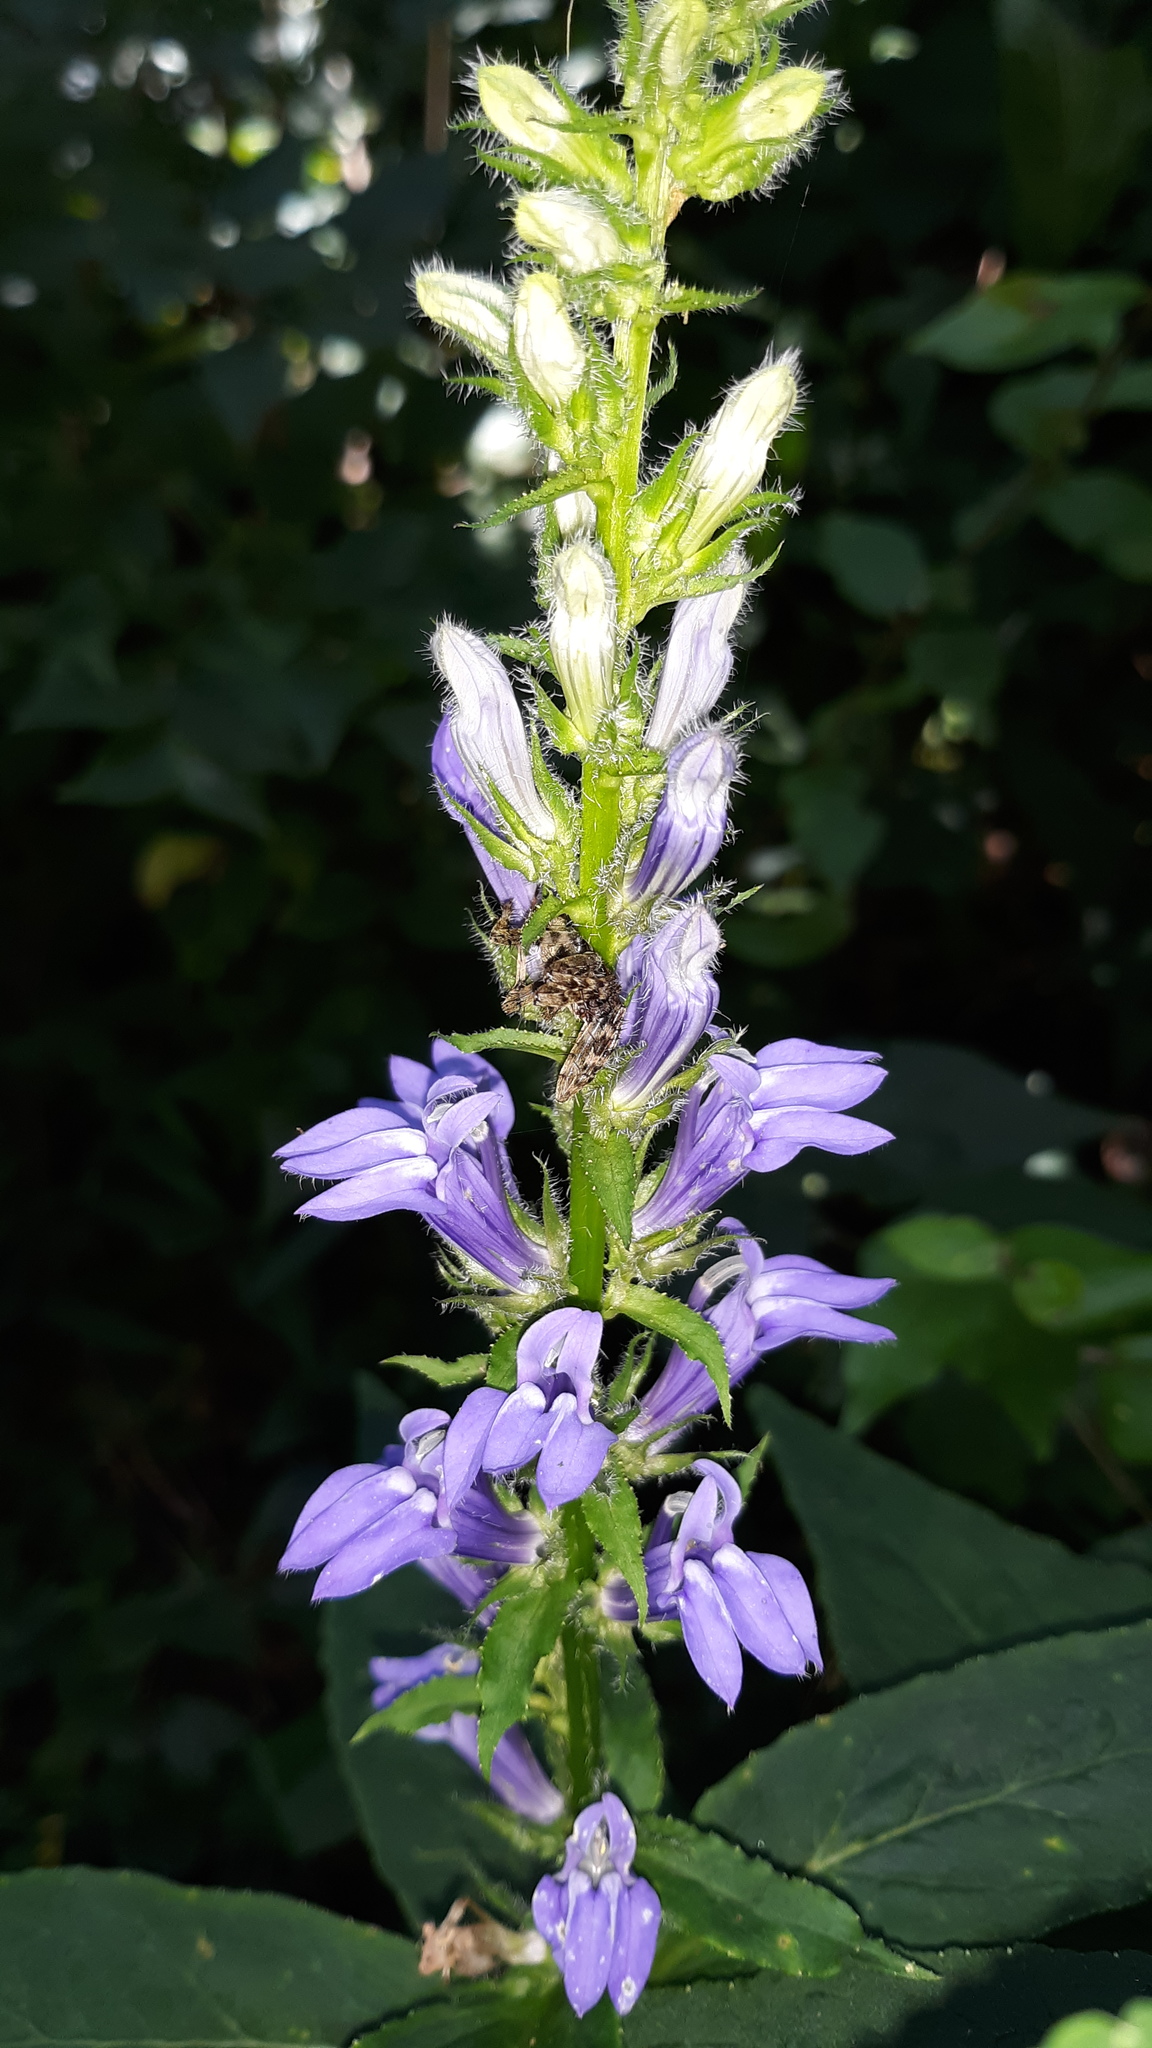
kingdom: Plantae
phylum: Tracheophyta
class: Magnoliopsida
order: Asterales
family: Campanulaceae
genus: Lobelia
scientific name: Lobelia siphilitica
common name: Great lobelia
